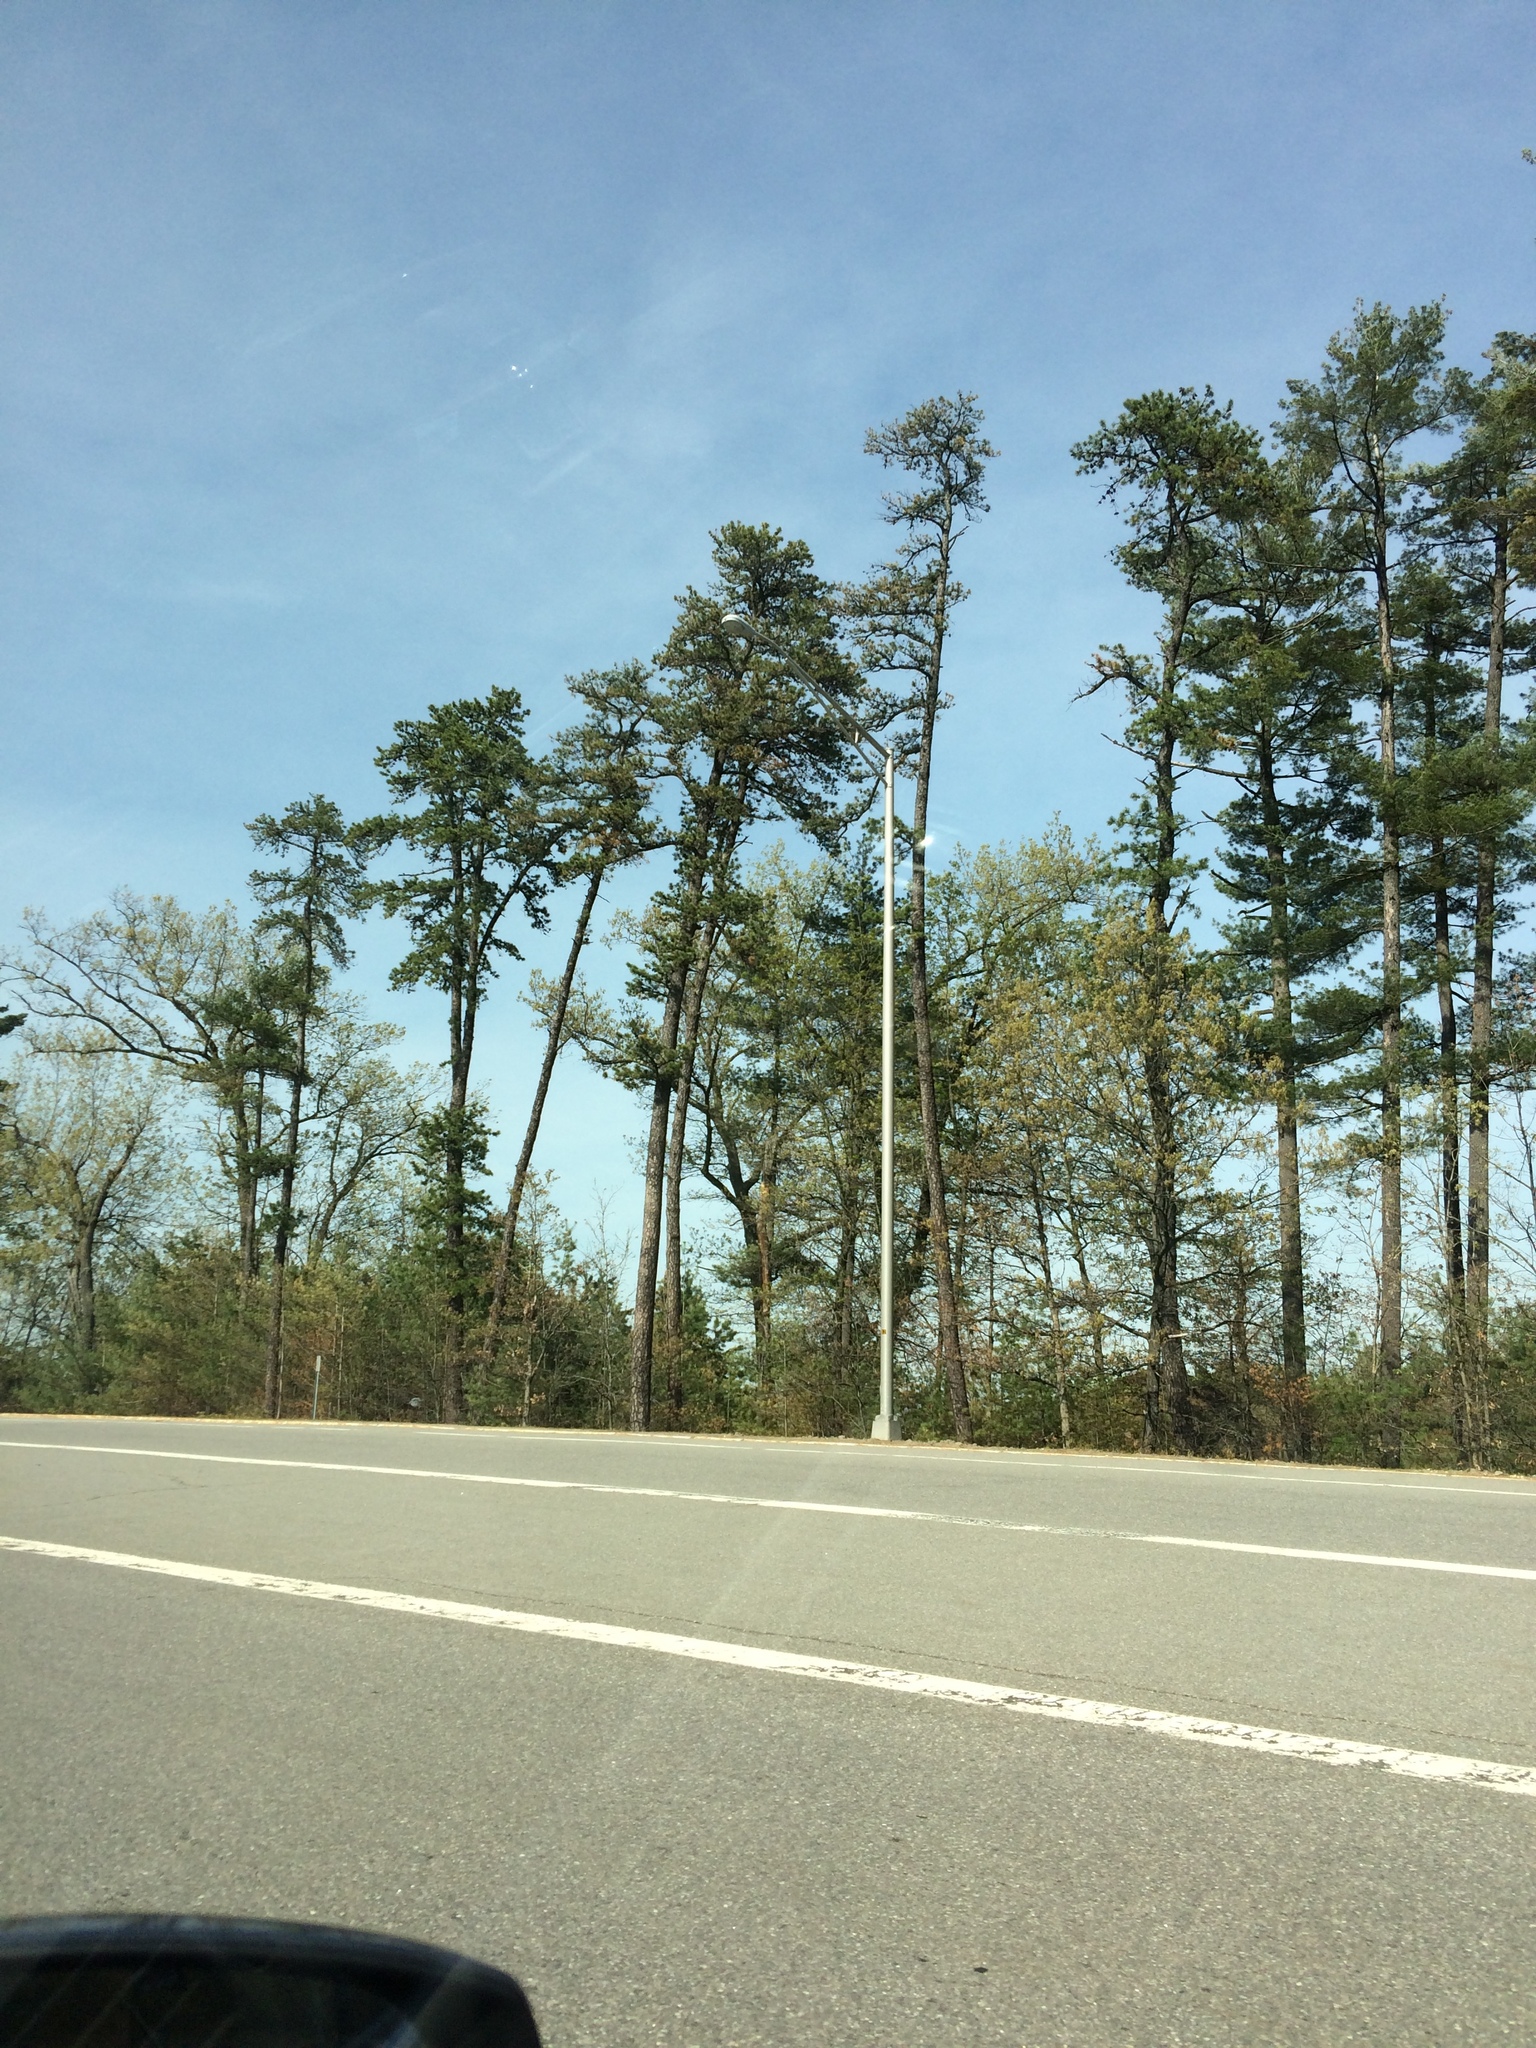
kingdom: Plantae
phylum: Tracheophyta
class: Pinopsida
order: Pinales
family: Pinaceae
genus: Pinus
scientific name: Pinus rigida
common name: Pitch pine
